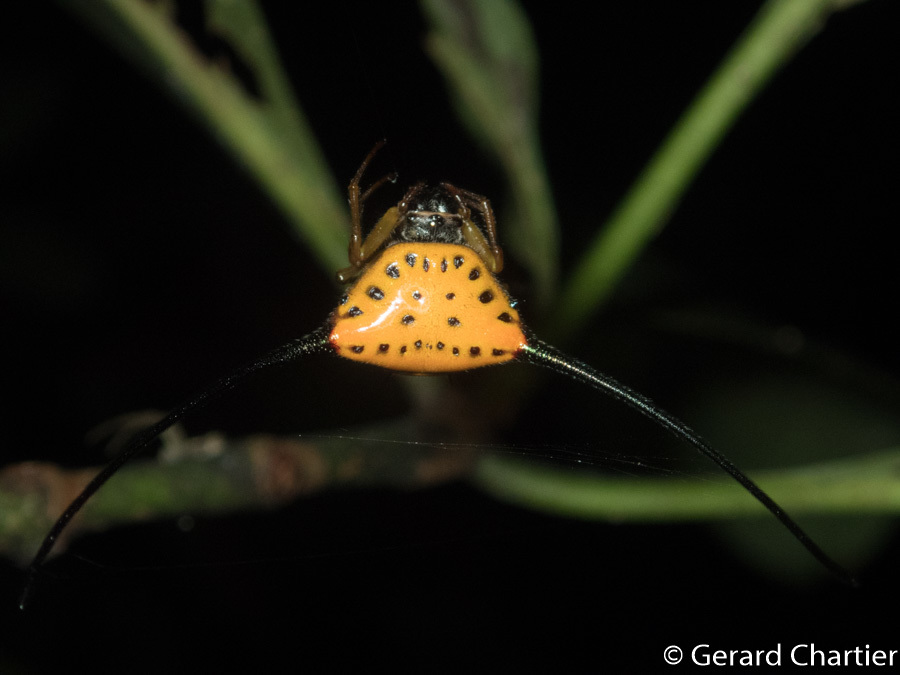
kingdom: Animalia
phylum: Arthropoda
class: Arachnida
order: Araneae
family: Araneidae
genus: Macracantha
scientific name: Macracantha arcuata
